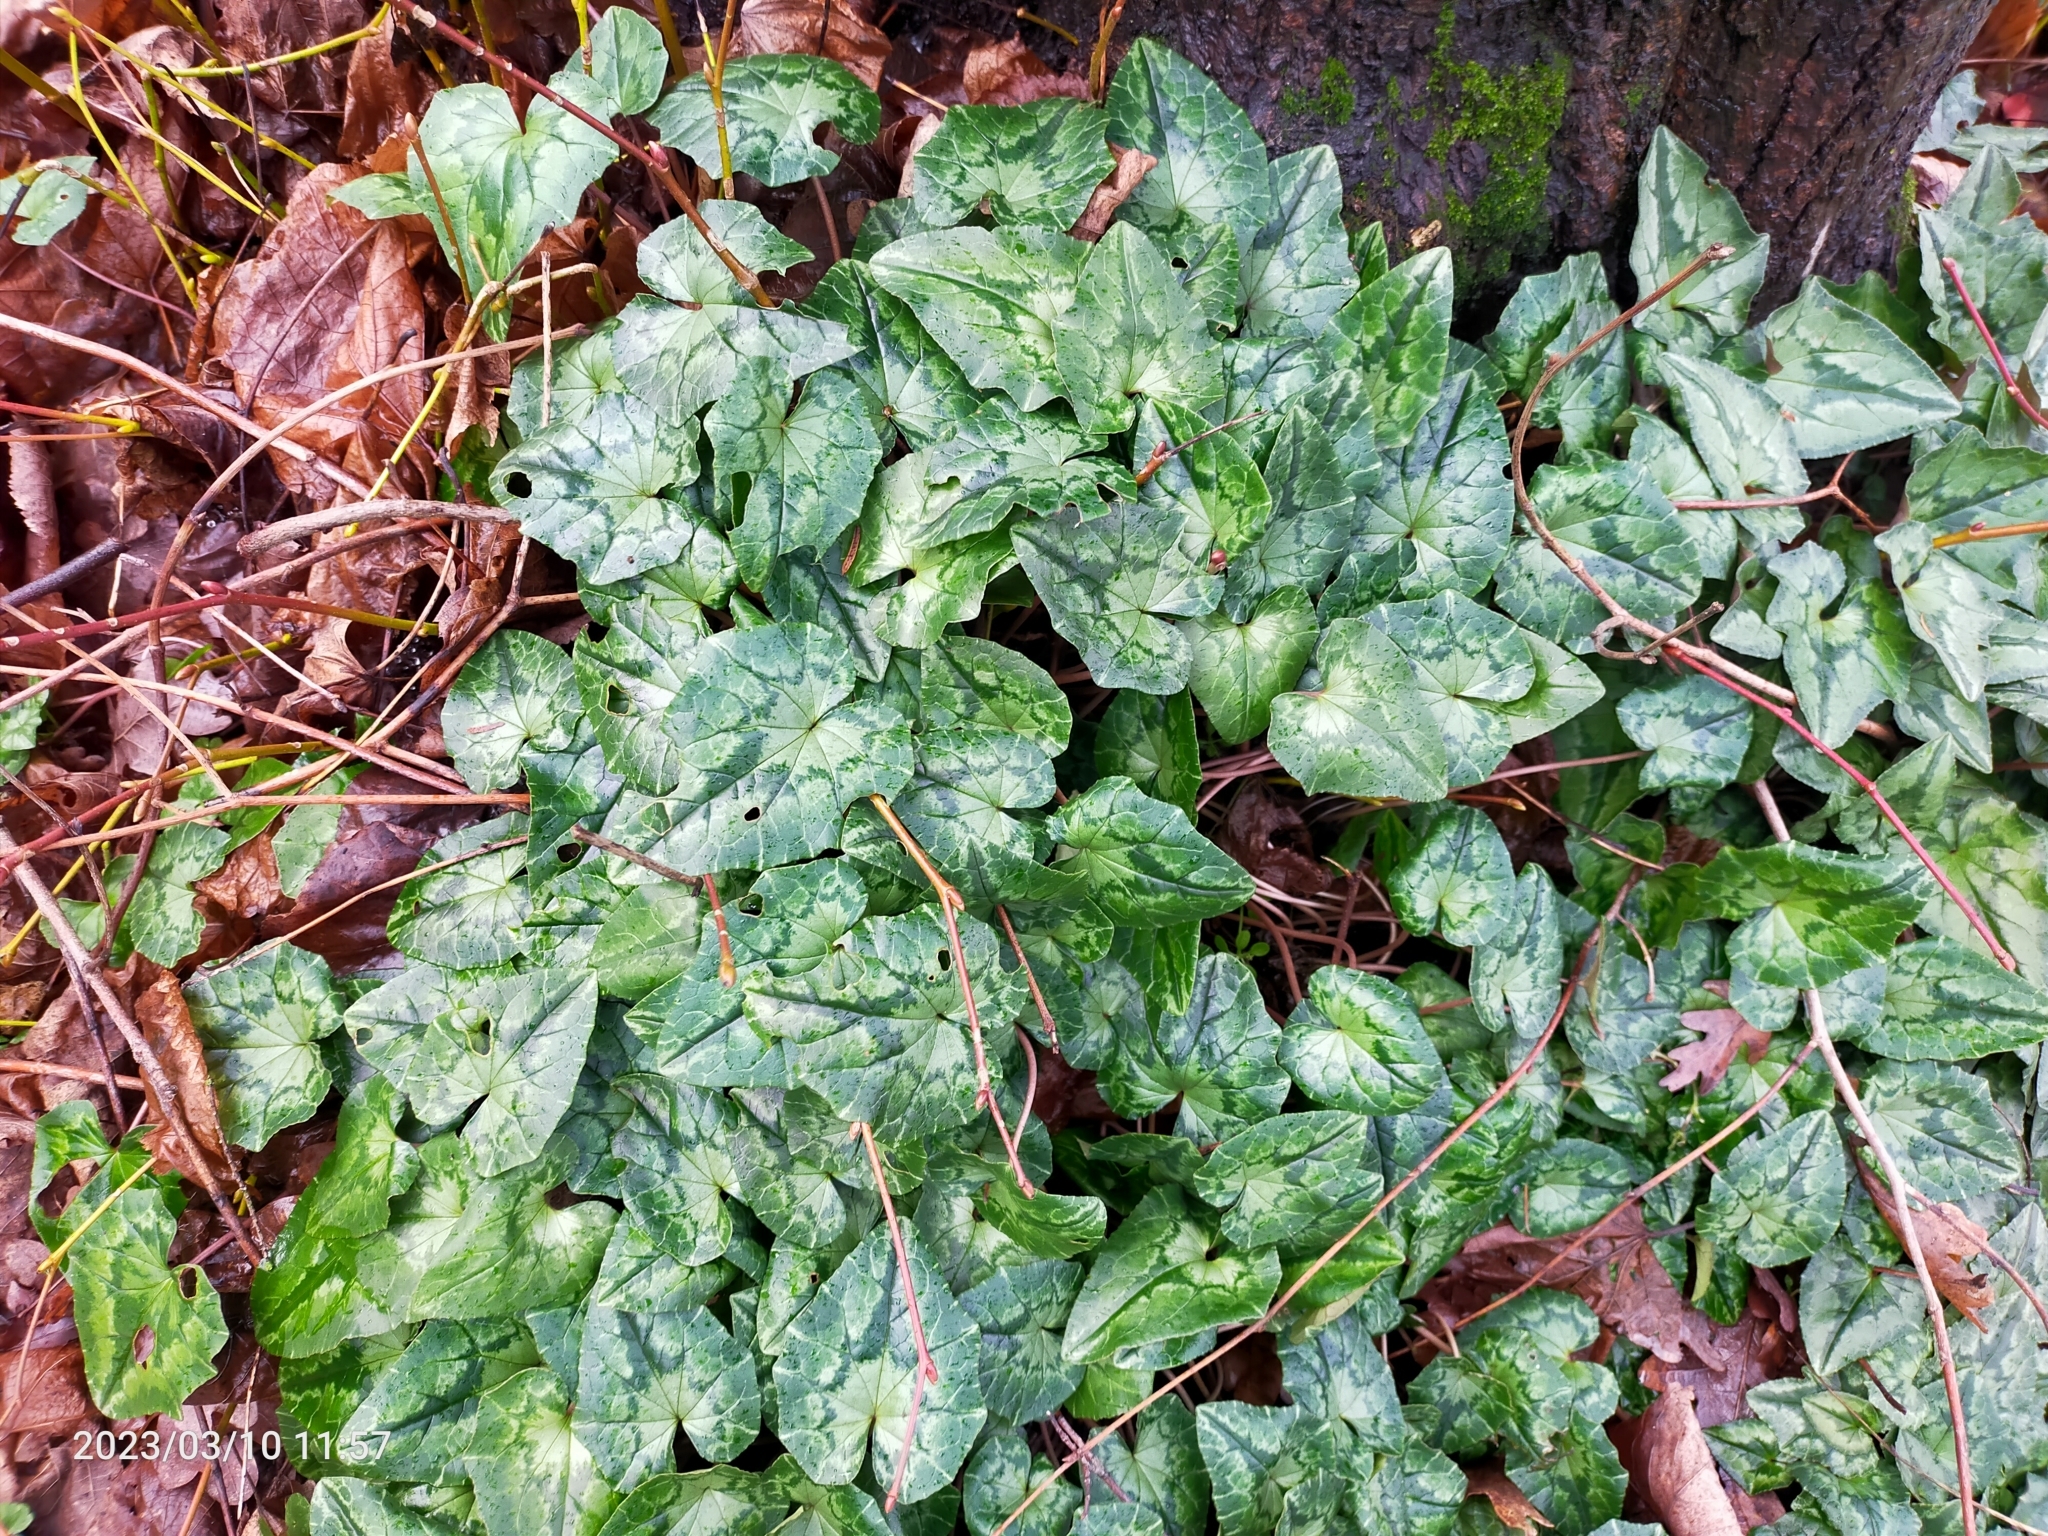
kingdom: Plantae
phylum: Tracheophyta
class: Magnoliopsida
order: Ericales
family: Primulaceae
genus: Cyclamen
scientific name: Cyclamen hederifolium
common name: Sowbread
